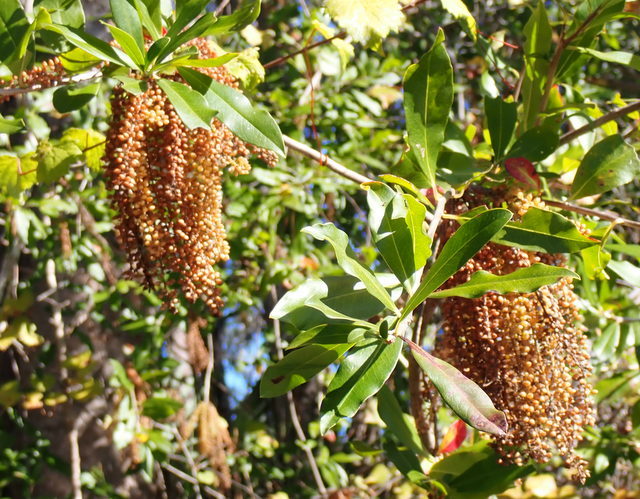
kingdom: Plantae
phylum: Tracheophyta
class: Magnoliopsida
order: Ericales
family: Cyrillaceae
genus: Cyrilla
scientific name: Cyrilla racemiflora
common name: Black titi
